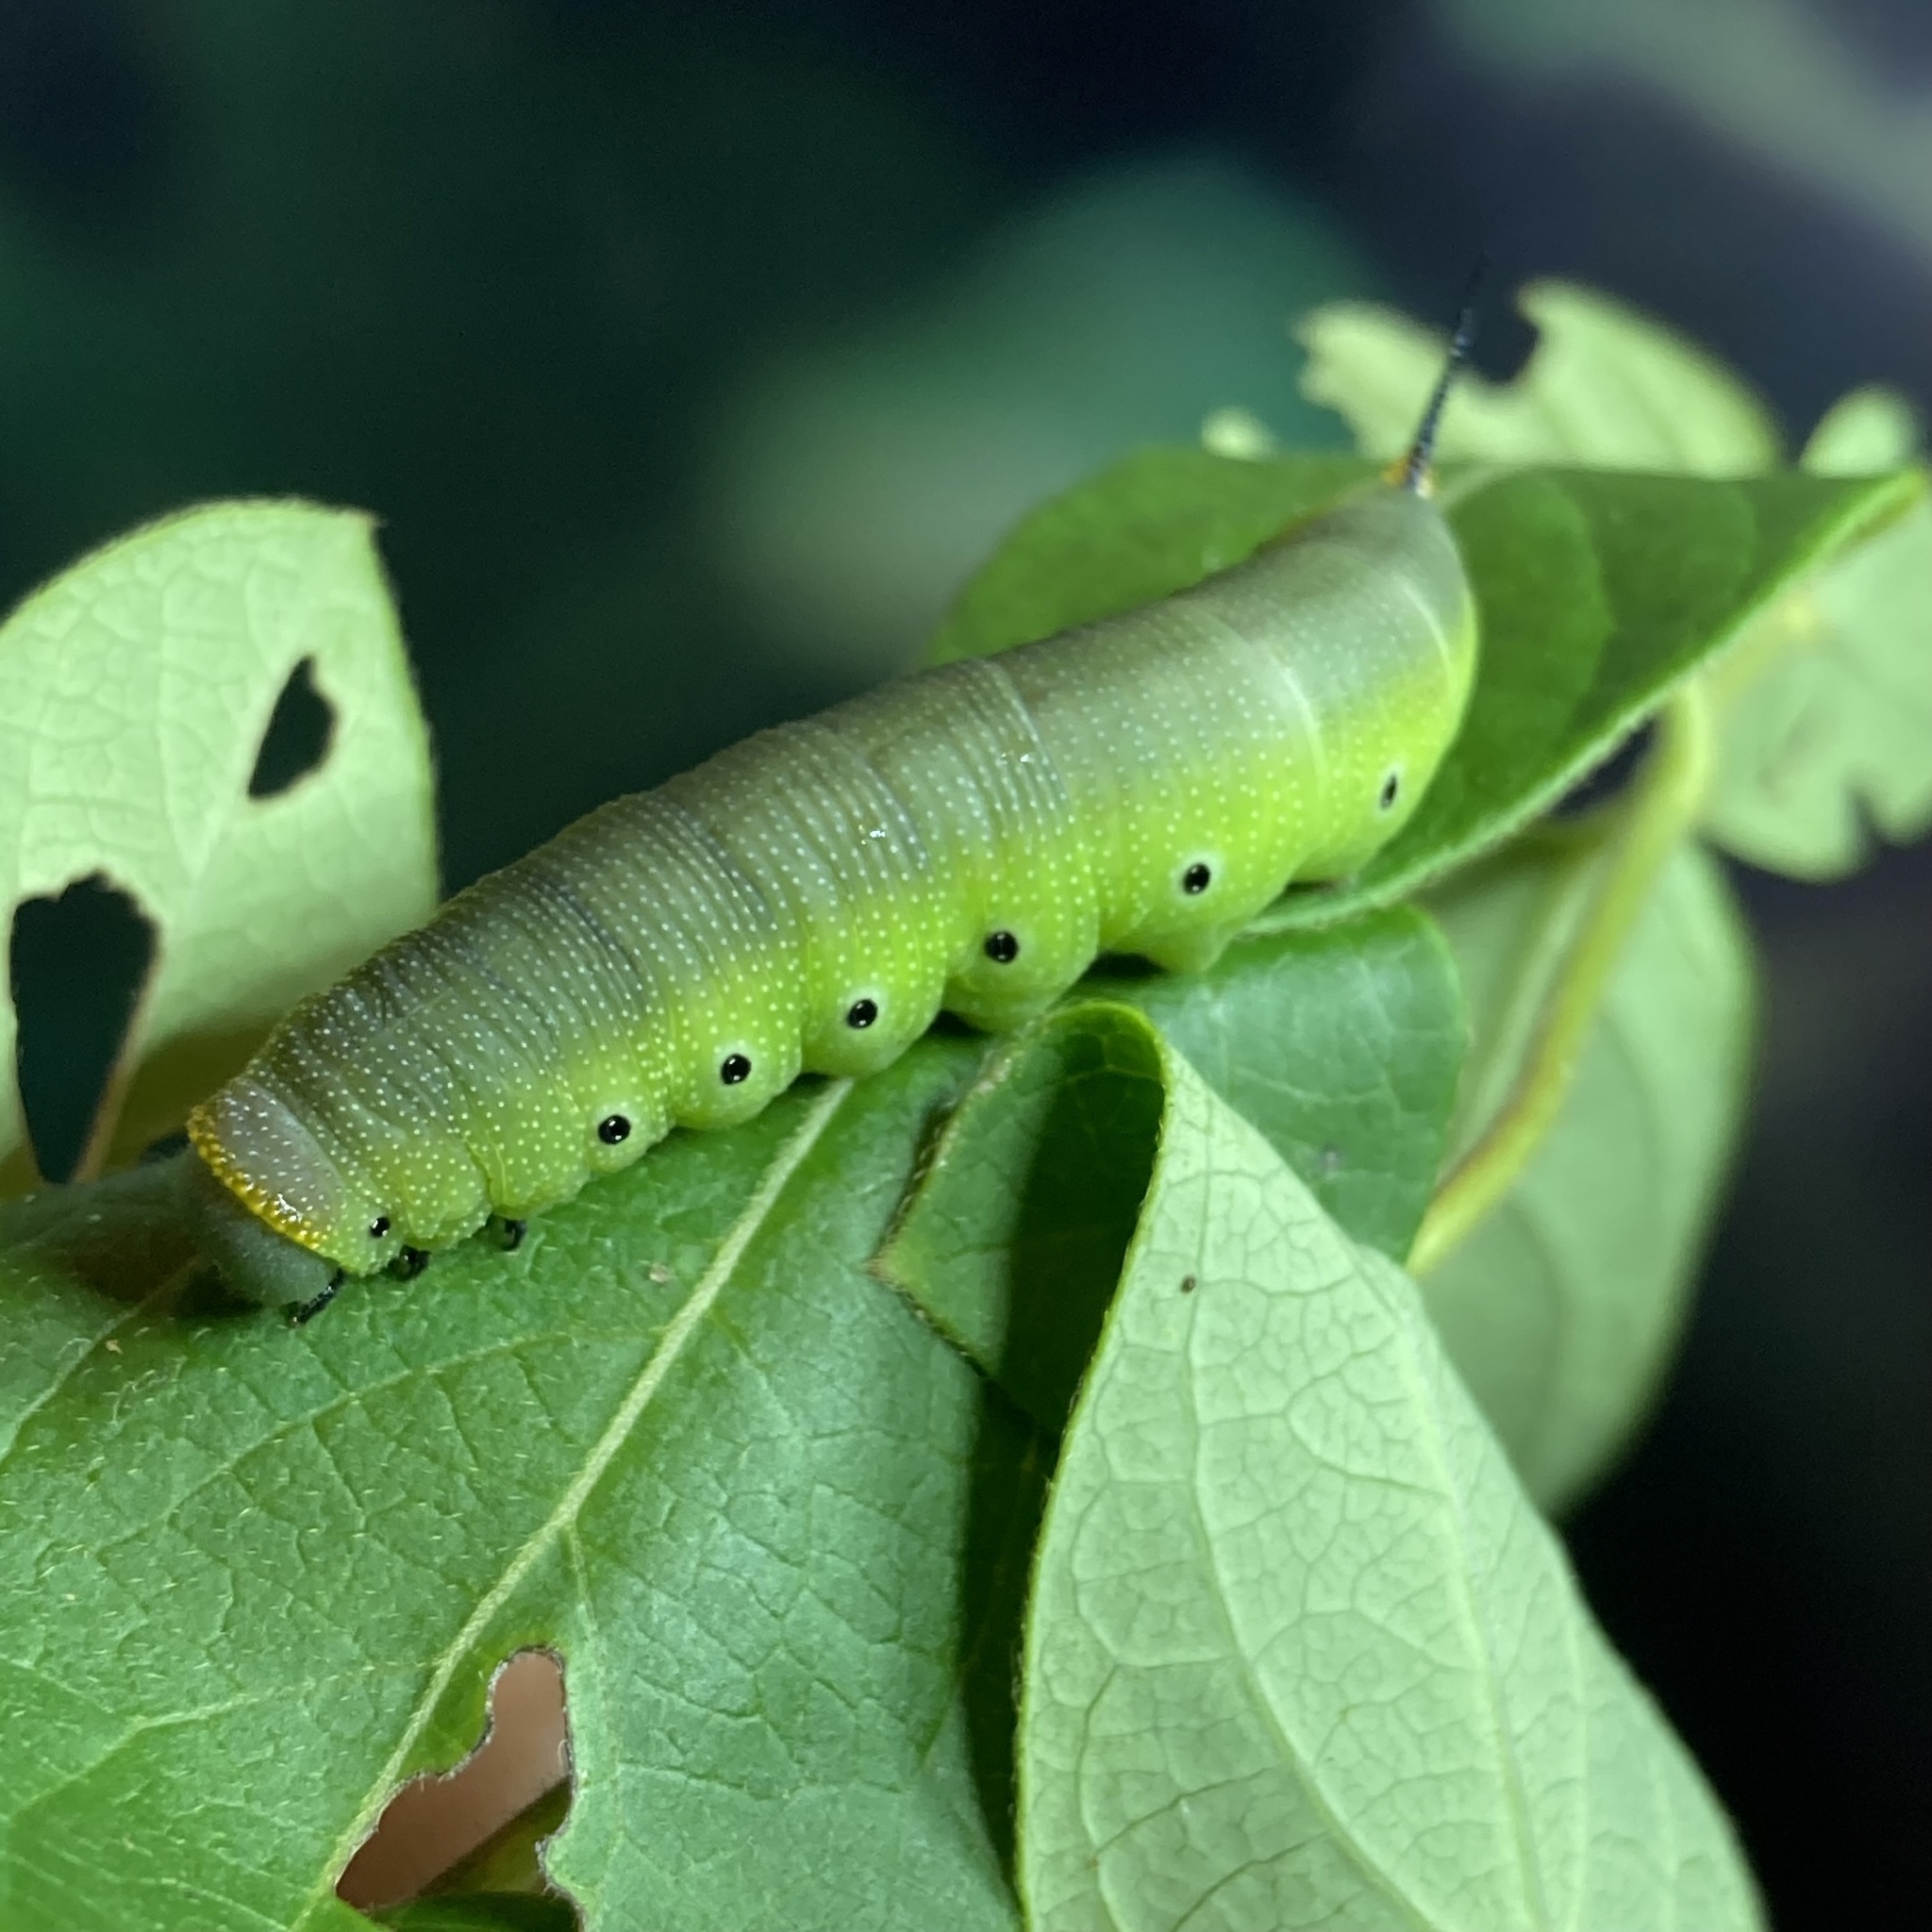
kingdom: Animalia
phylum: Arthropoda
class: Insecta
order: Lepidoptera
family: Sphingidae
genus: Hemaris
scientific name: Hemaris diffinis
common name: Bumblebee moth
